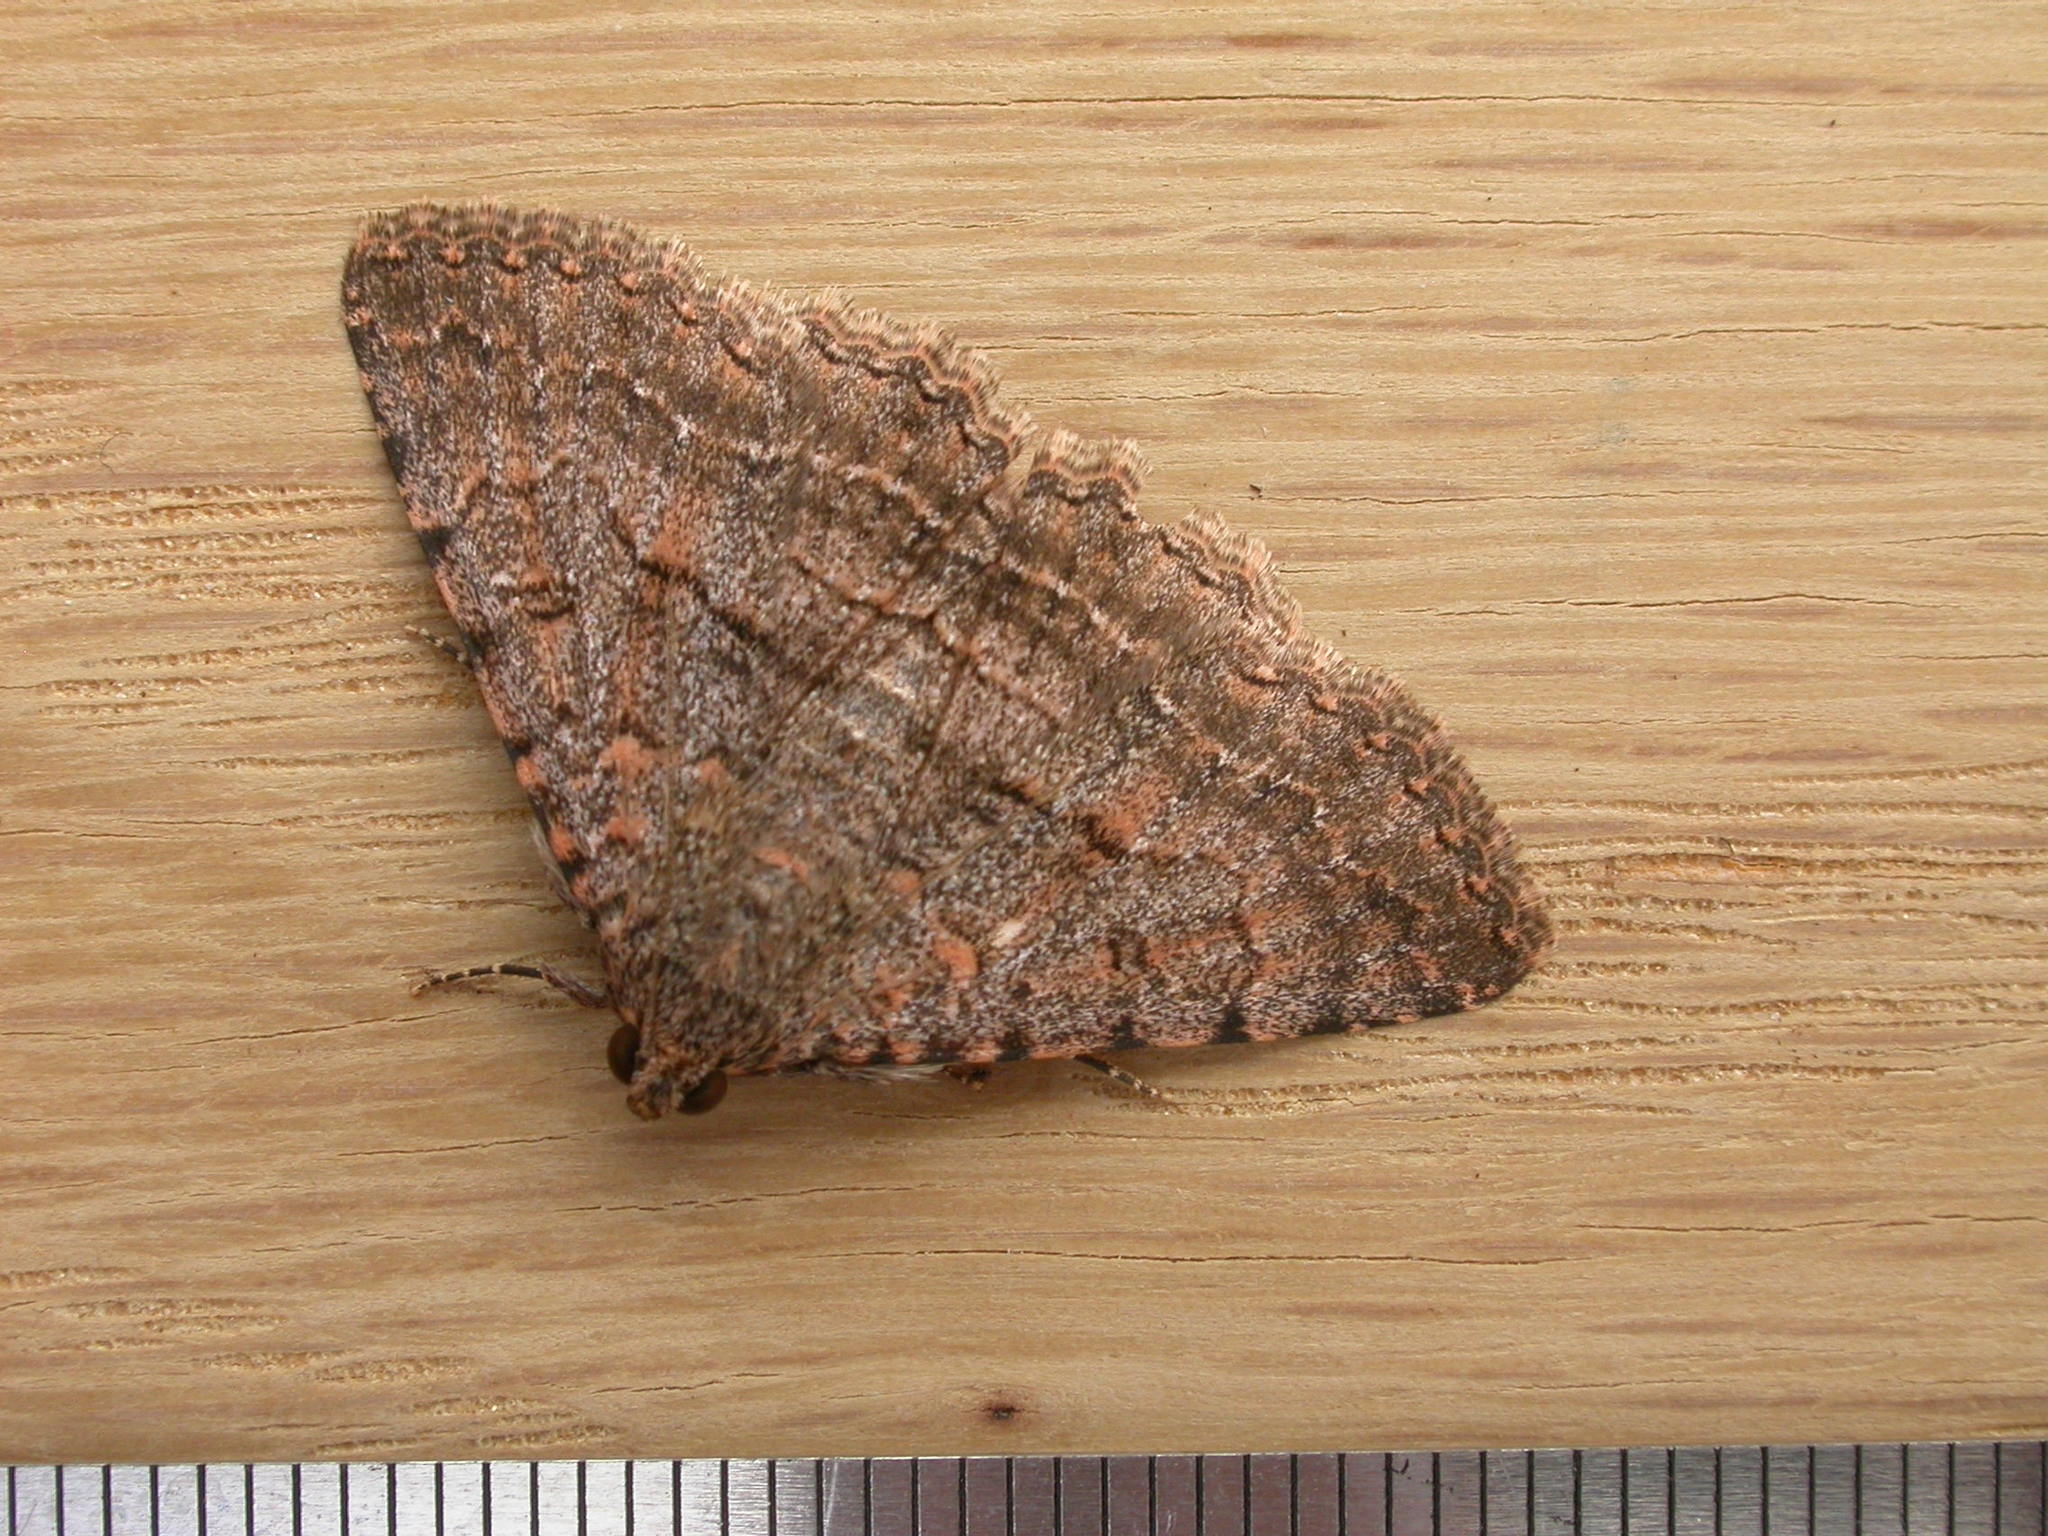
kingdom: Animalia
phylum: Arthropoda
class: Insecta
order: Lepidoptera
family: Erebidae
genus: Diatenes
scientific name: Diatenes igneipicta
